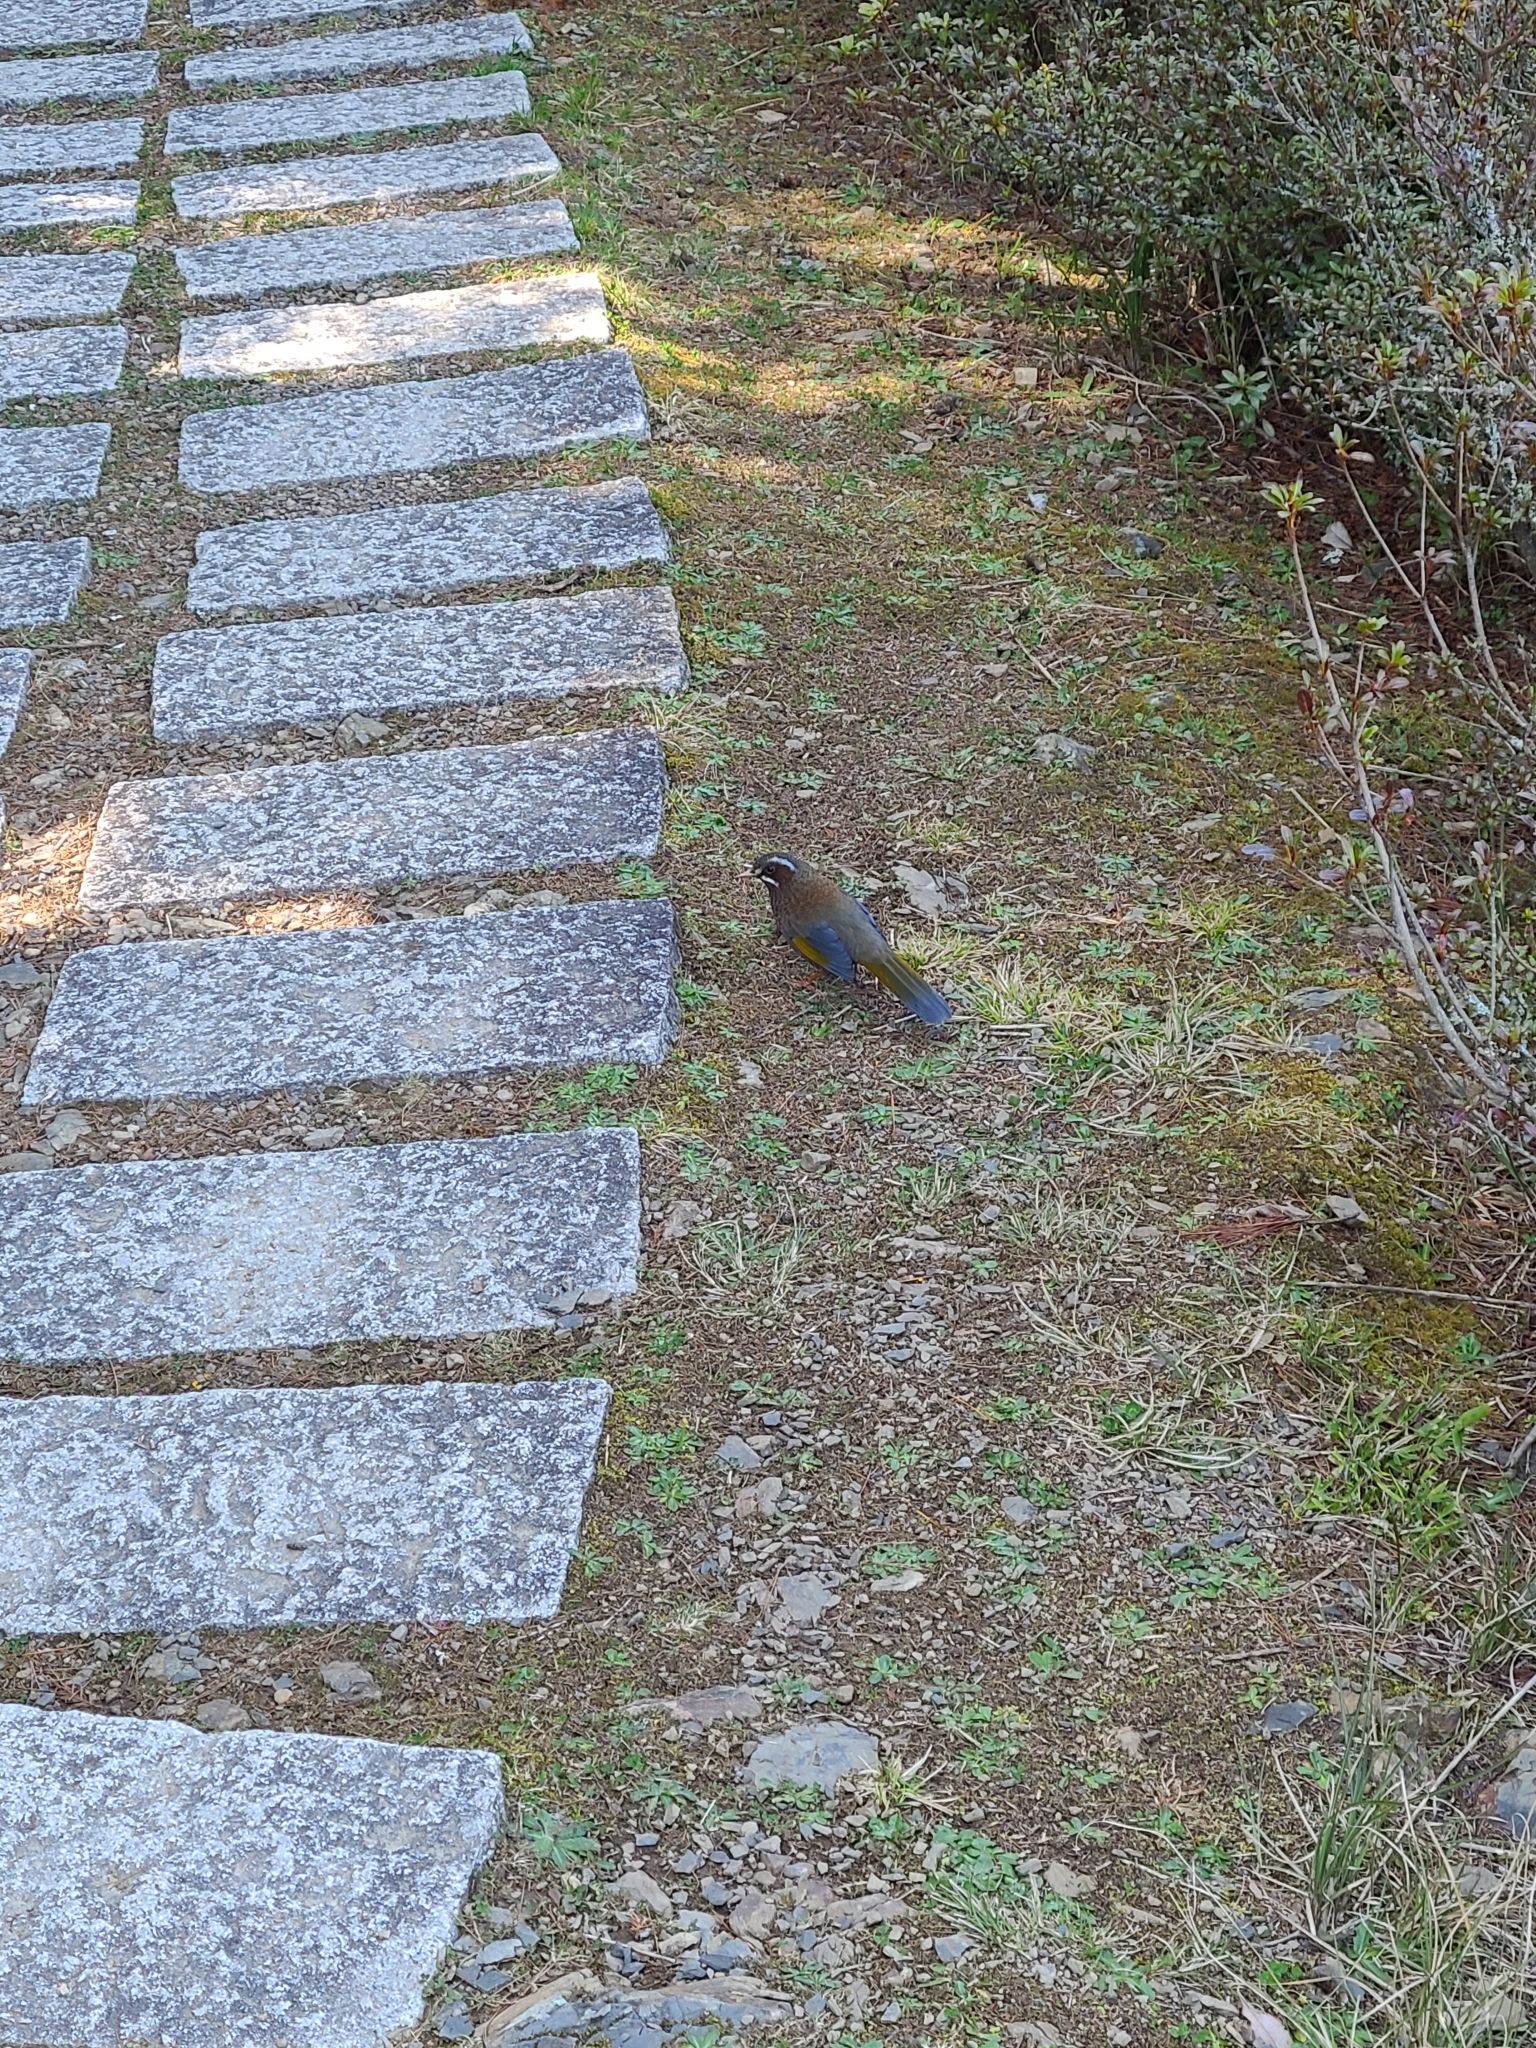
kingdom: Animalia
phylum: Chordata
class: Aves
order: Passeriformes
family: Leiothrichidae
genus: Trochalopteron
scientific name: Trochalopteron morrisonianum
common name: White-whiskered laughingthrush
